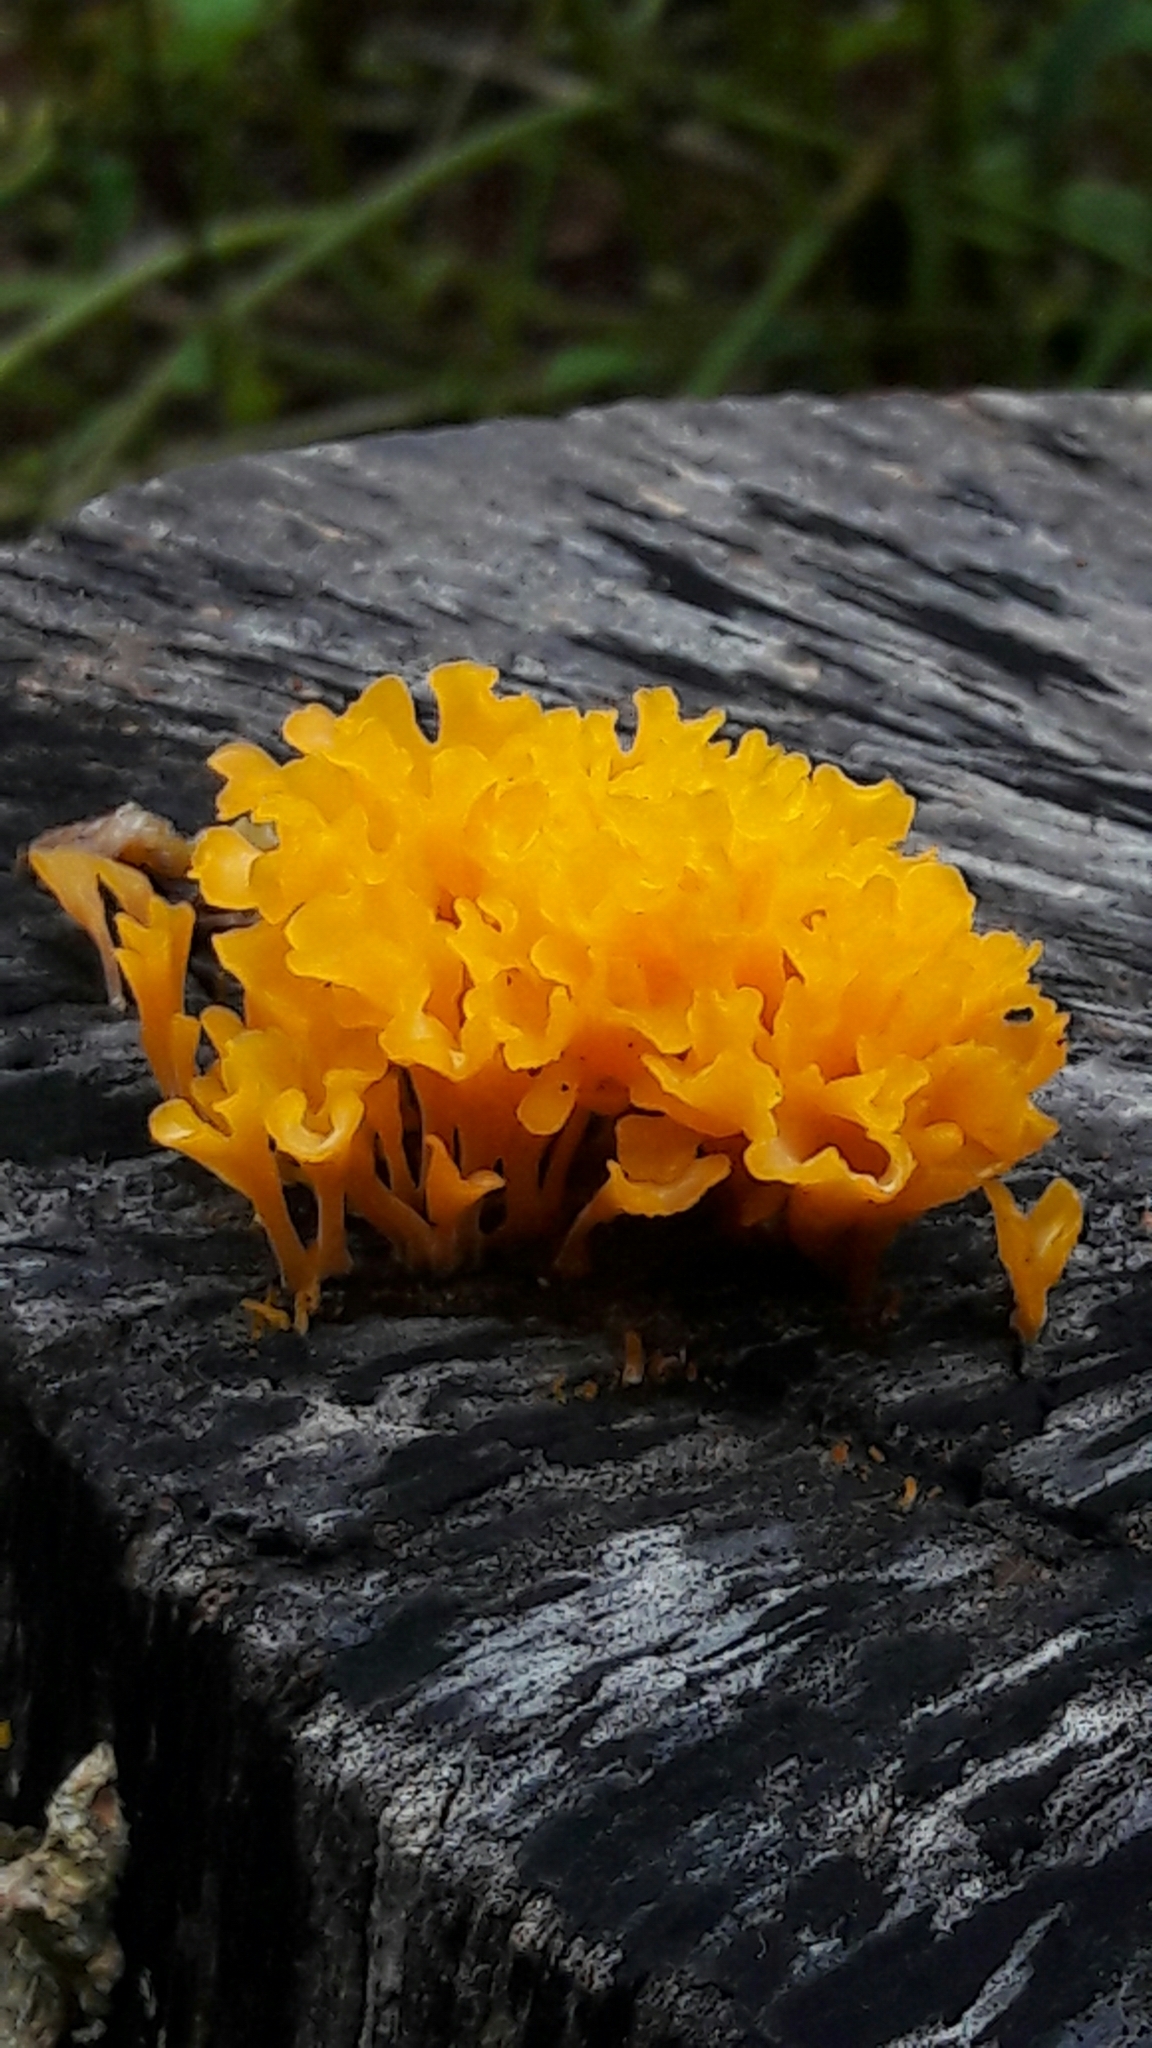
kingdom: Fungi
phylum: Basidiomycota
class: Dacrymycetes
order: Dacrymycetales
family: Dacrymycetaceae
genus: Dacrymyces
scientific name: Dacrymyces spathularius
